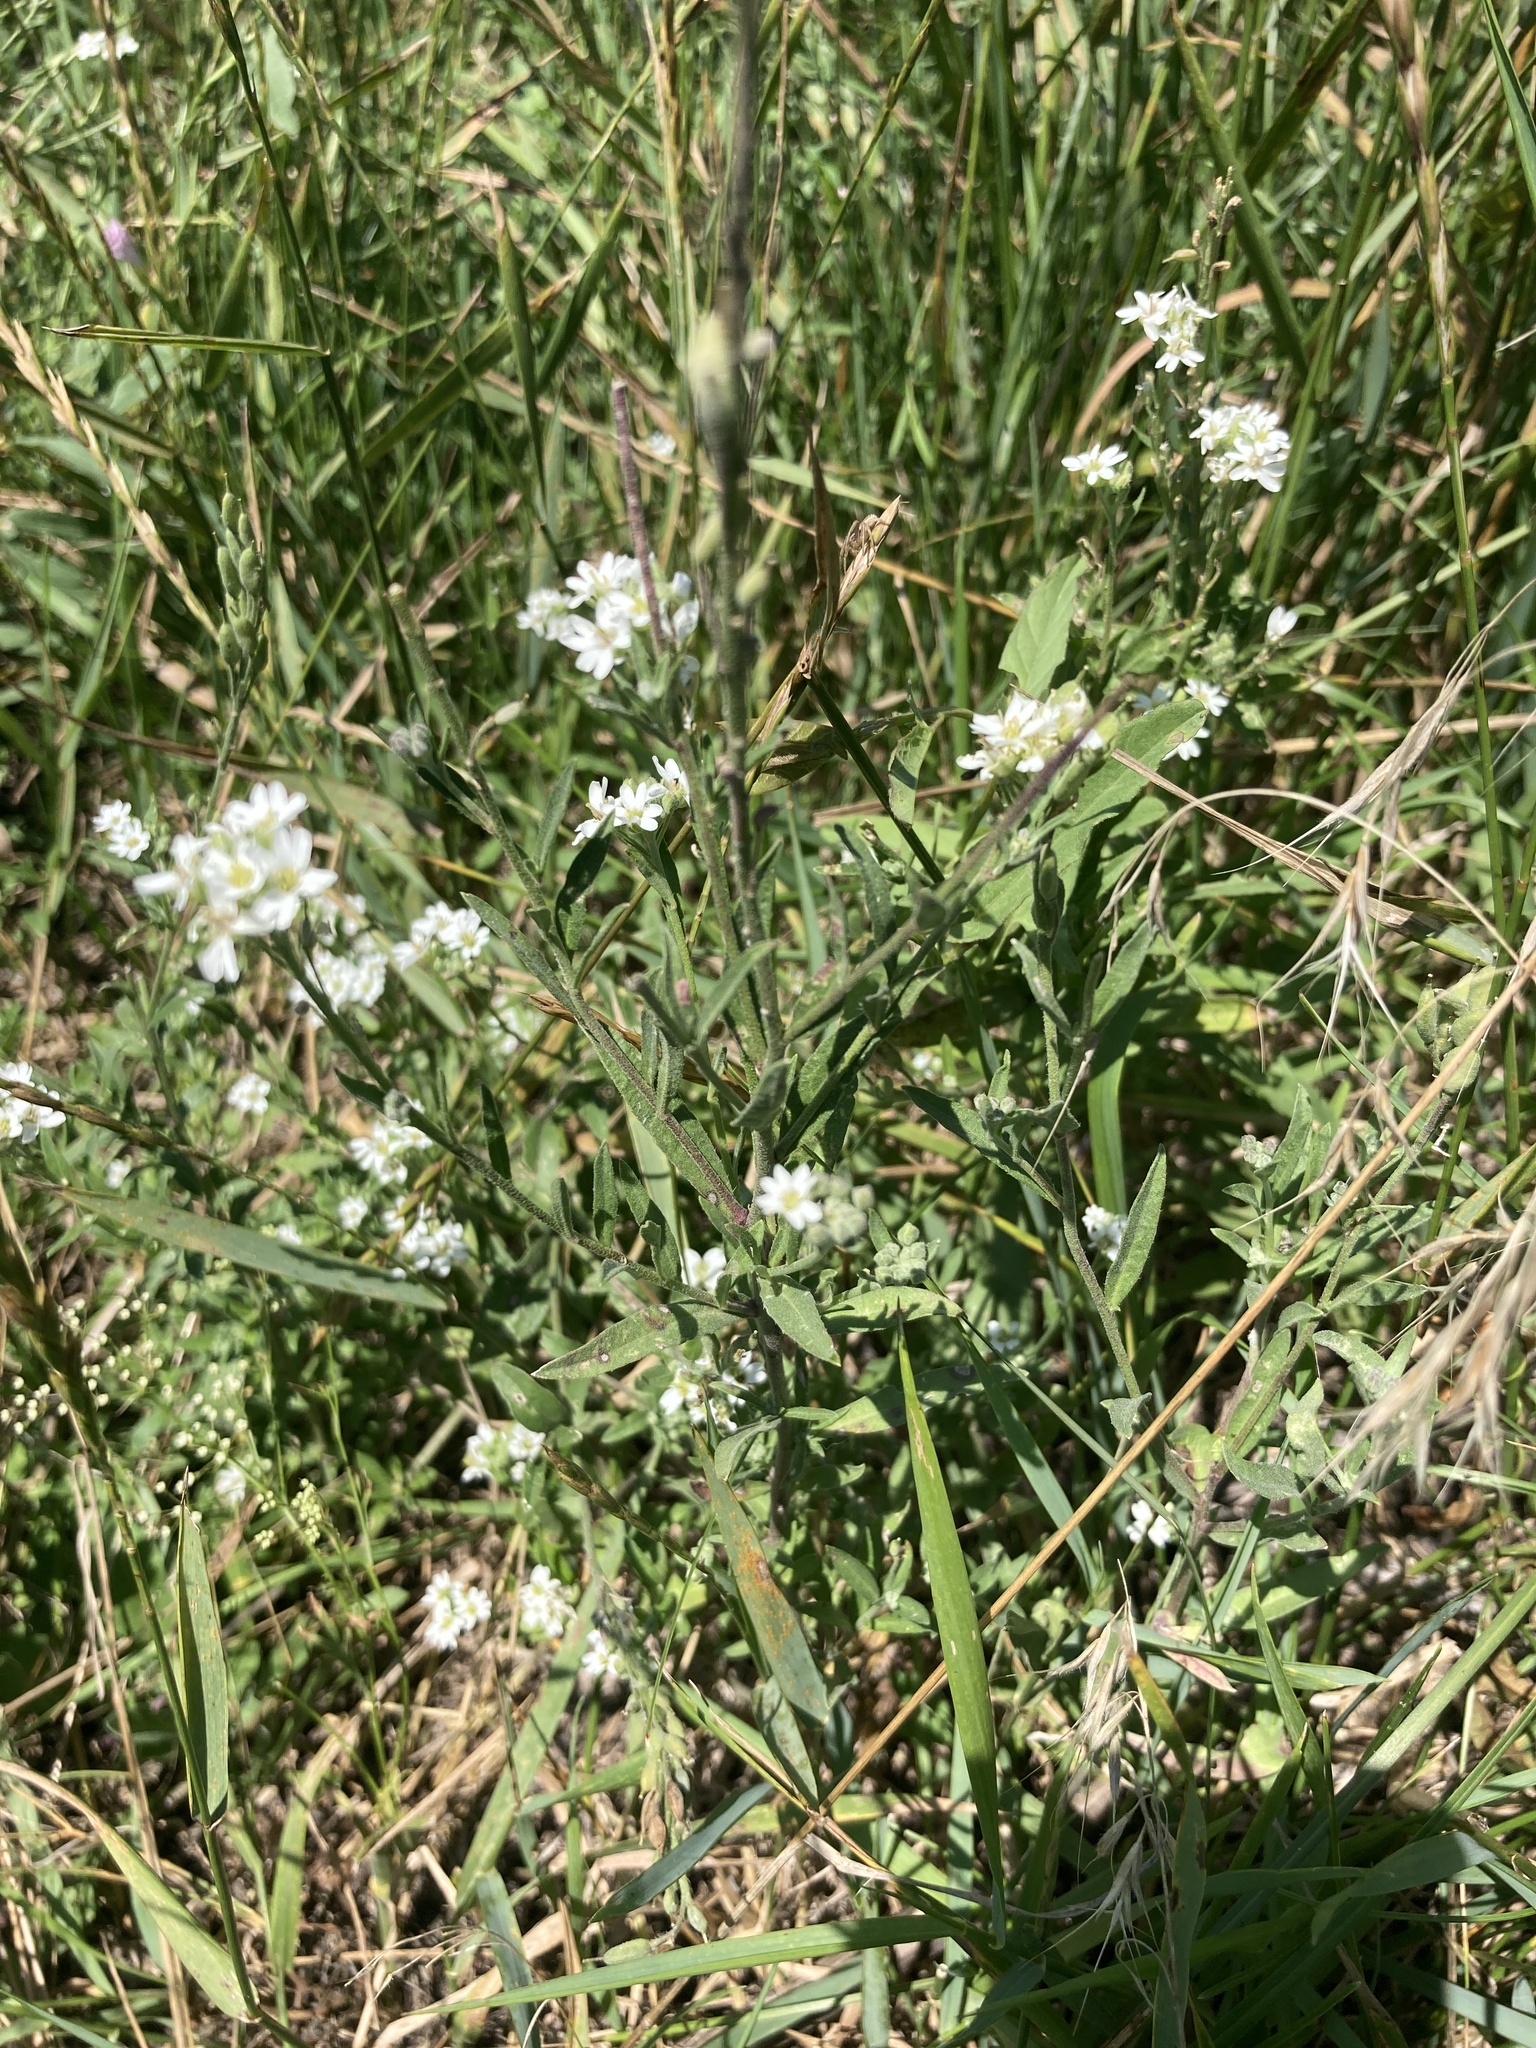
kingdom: Plantae
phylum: Tracheophyta
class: Magnoliopsida
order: Brassicales
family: Brassicaceae
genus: Berteroa
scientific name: Berteroa incana
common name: Hoary alison
